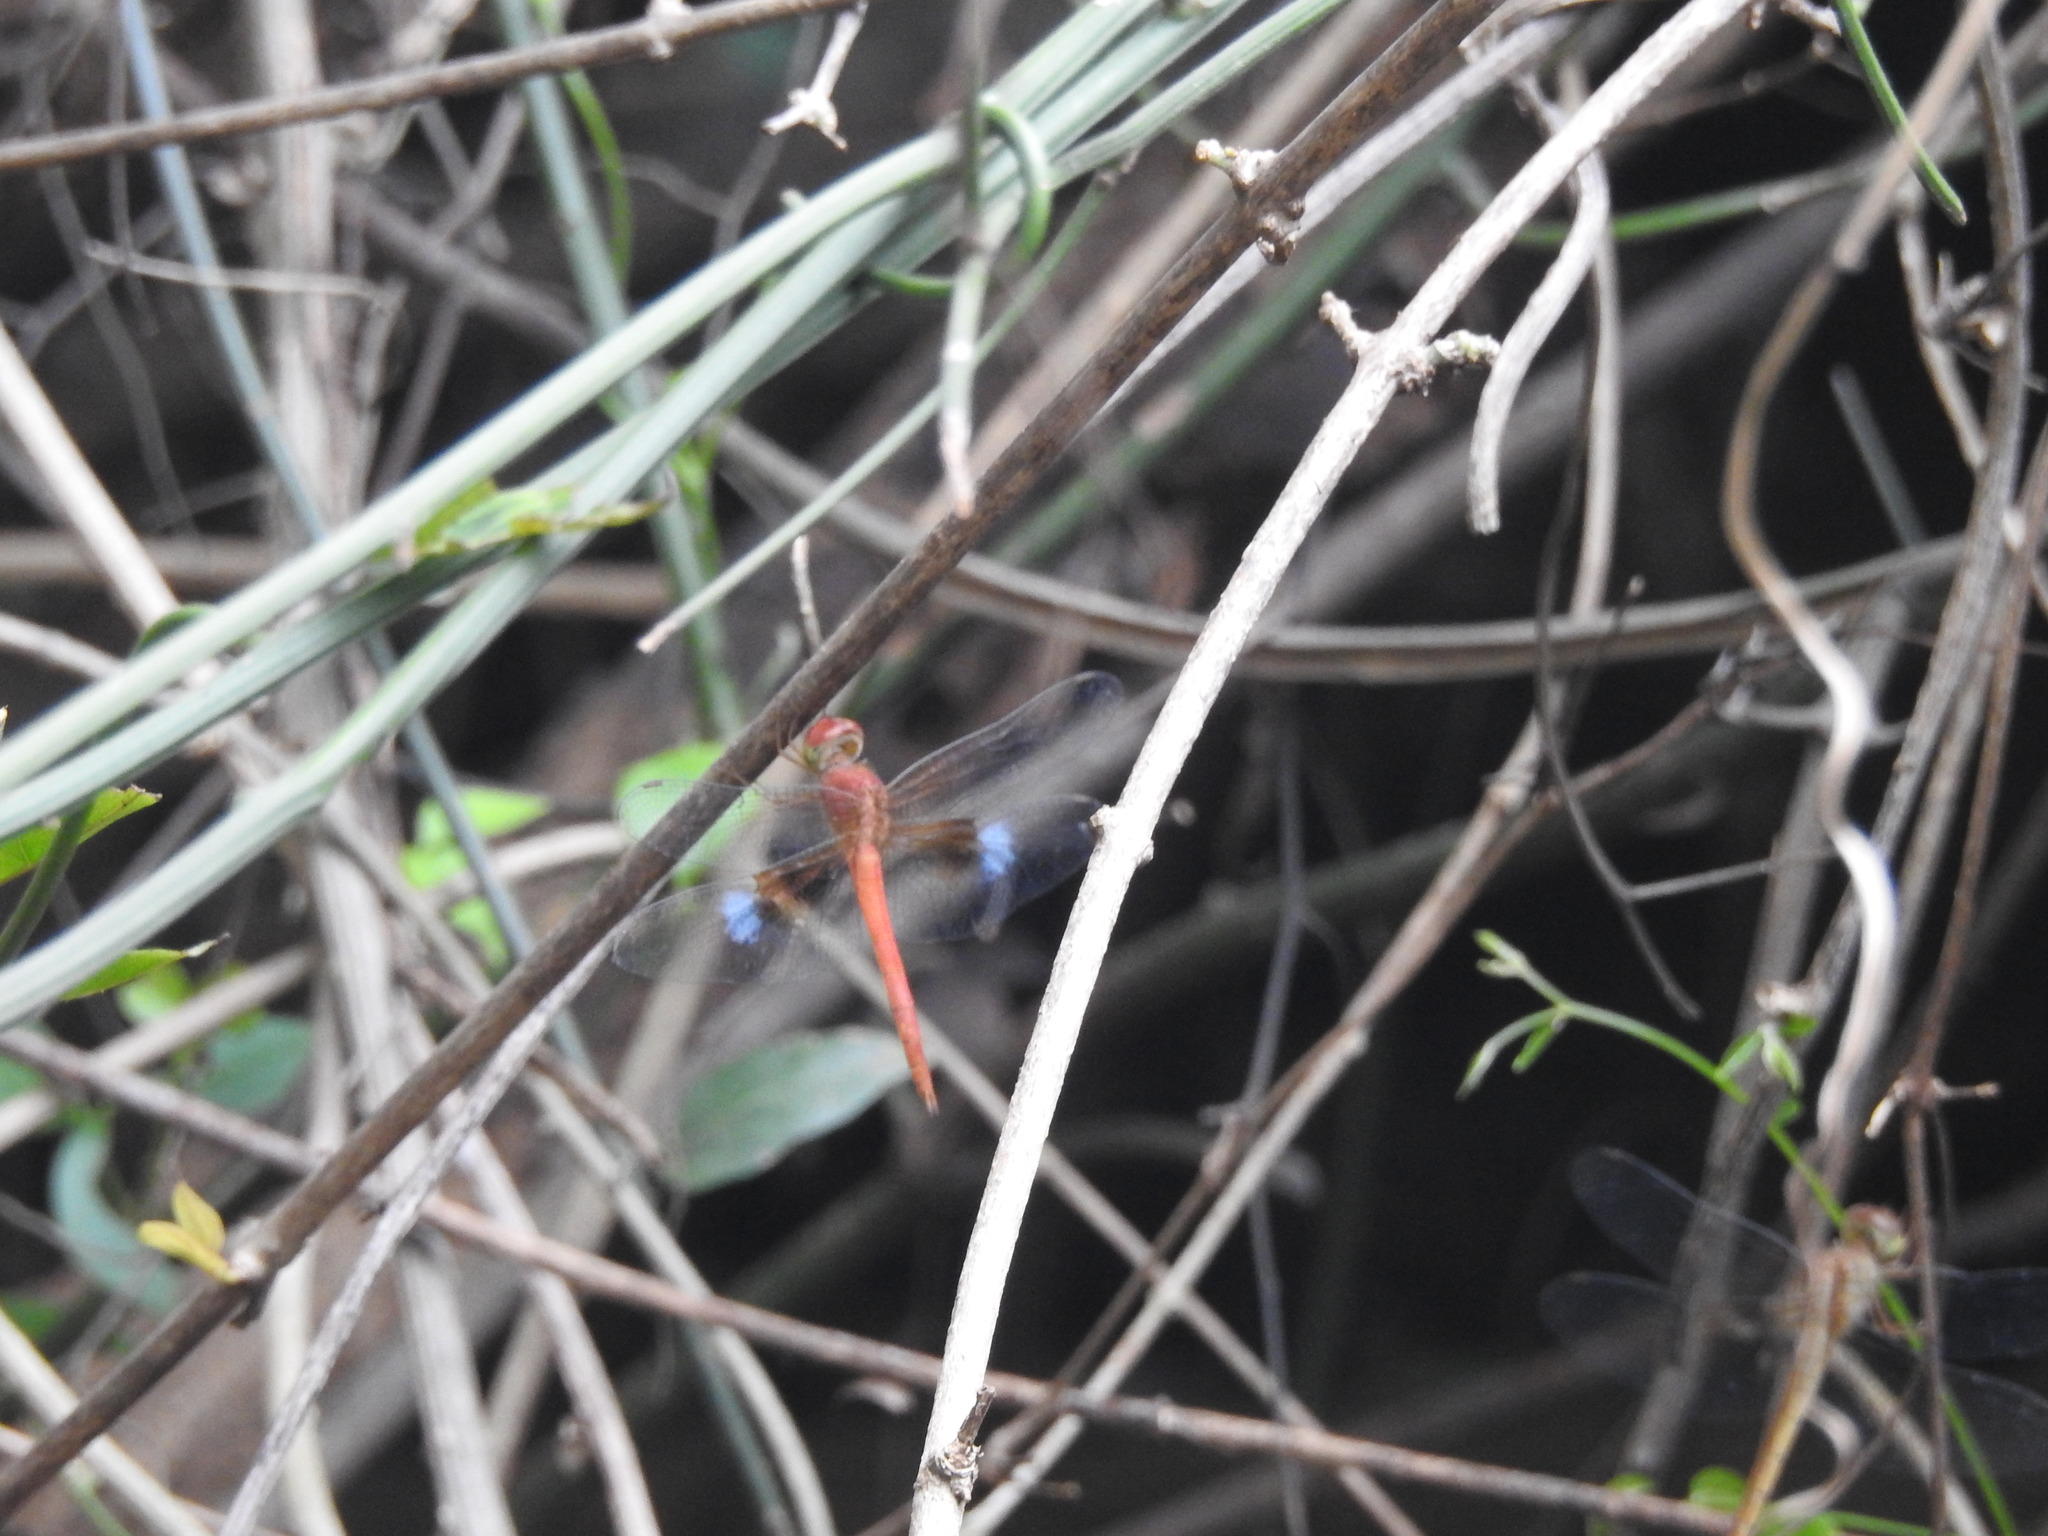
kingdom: Animalia
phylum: Arthropoda
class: Insecta
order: Odonata
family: Libellulidae
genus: Tholymis
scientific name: Tholymis tillarga
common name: Coral-tailed cloud wing
